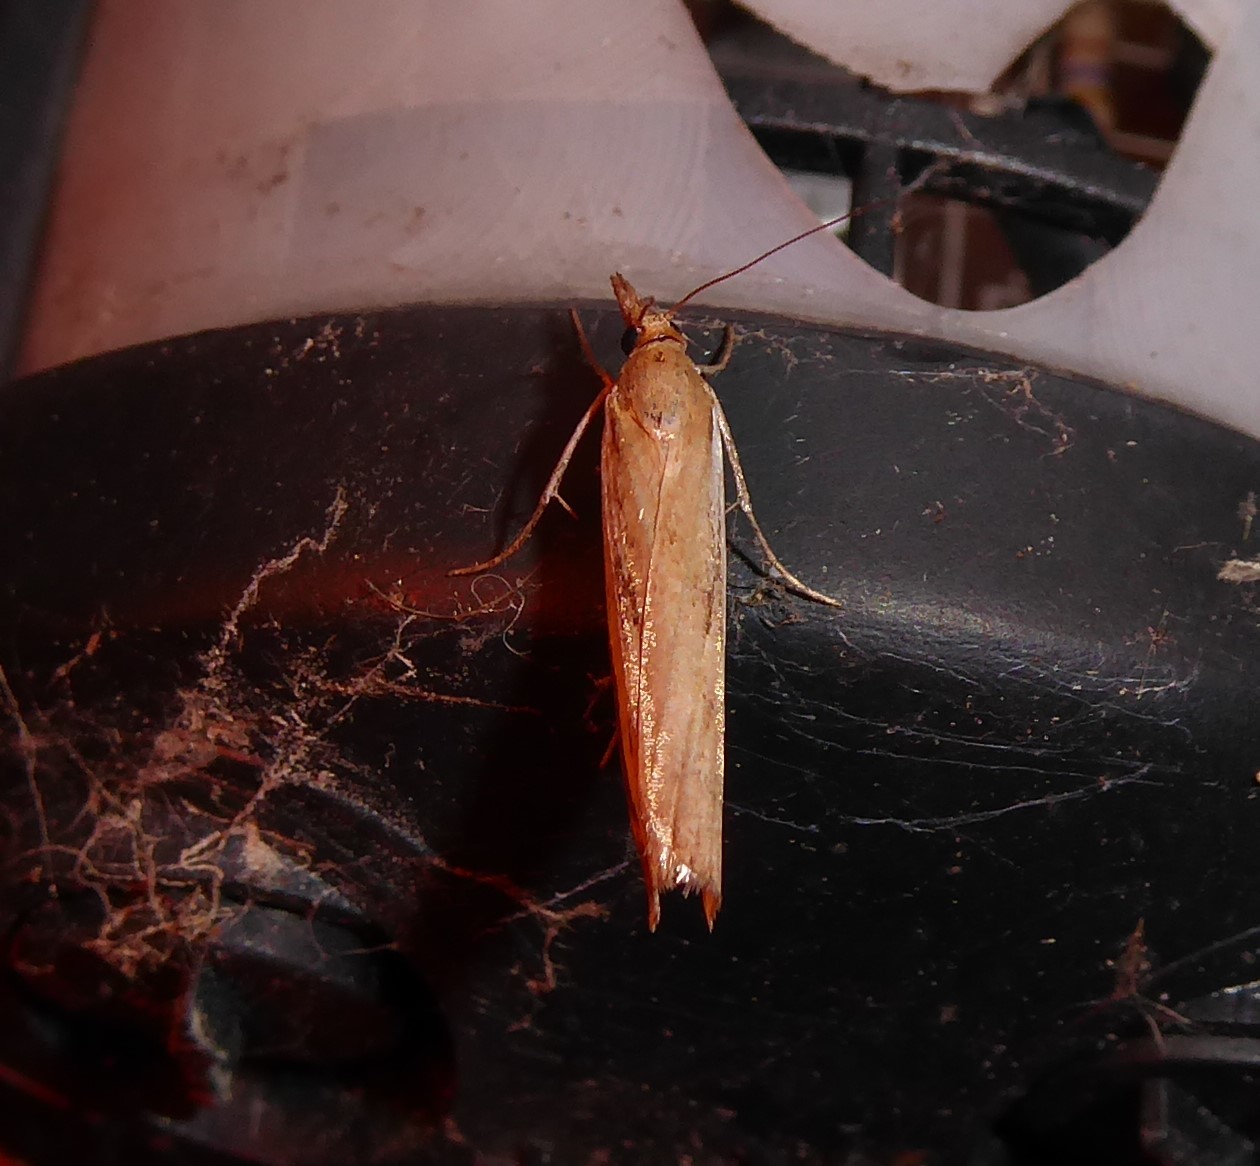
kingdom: Animalia
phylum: Arthropoda
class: Insecta
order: Lepidoptera
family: Crambidae
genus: Orocrambus
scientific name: Orocrambus flexuosellus
